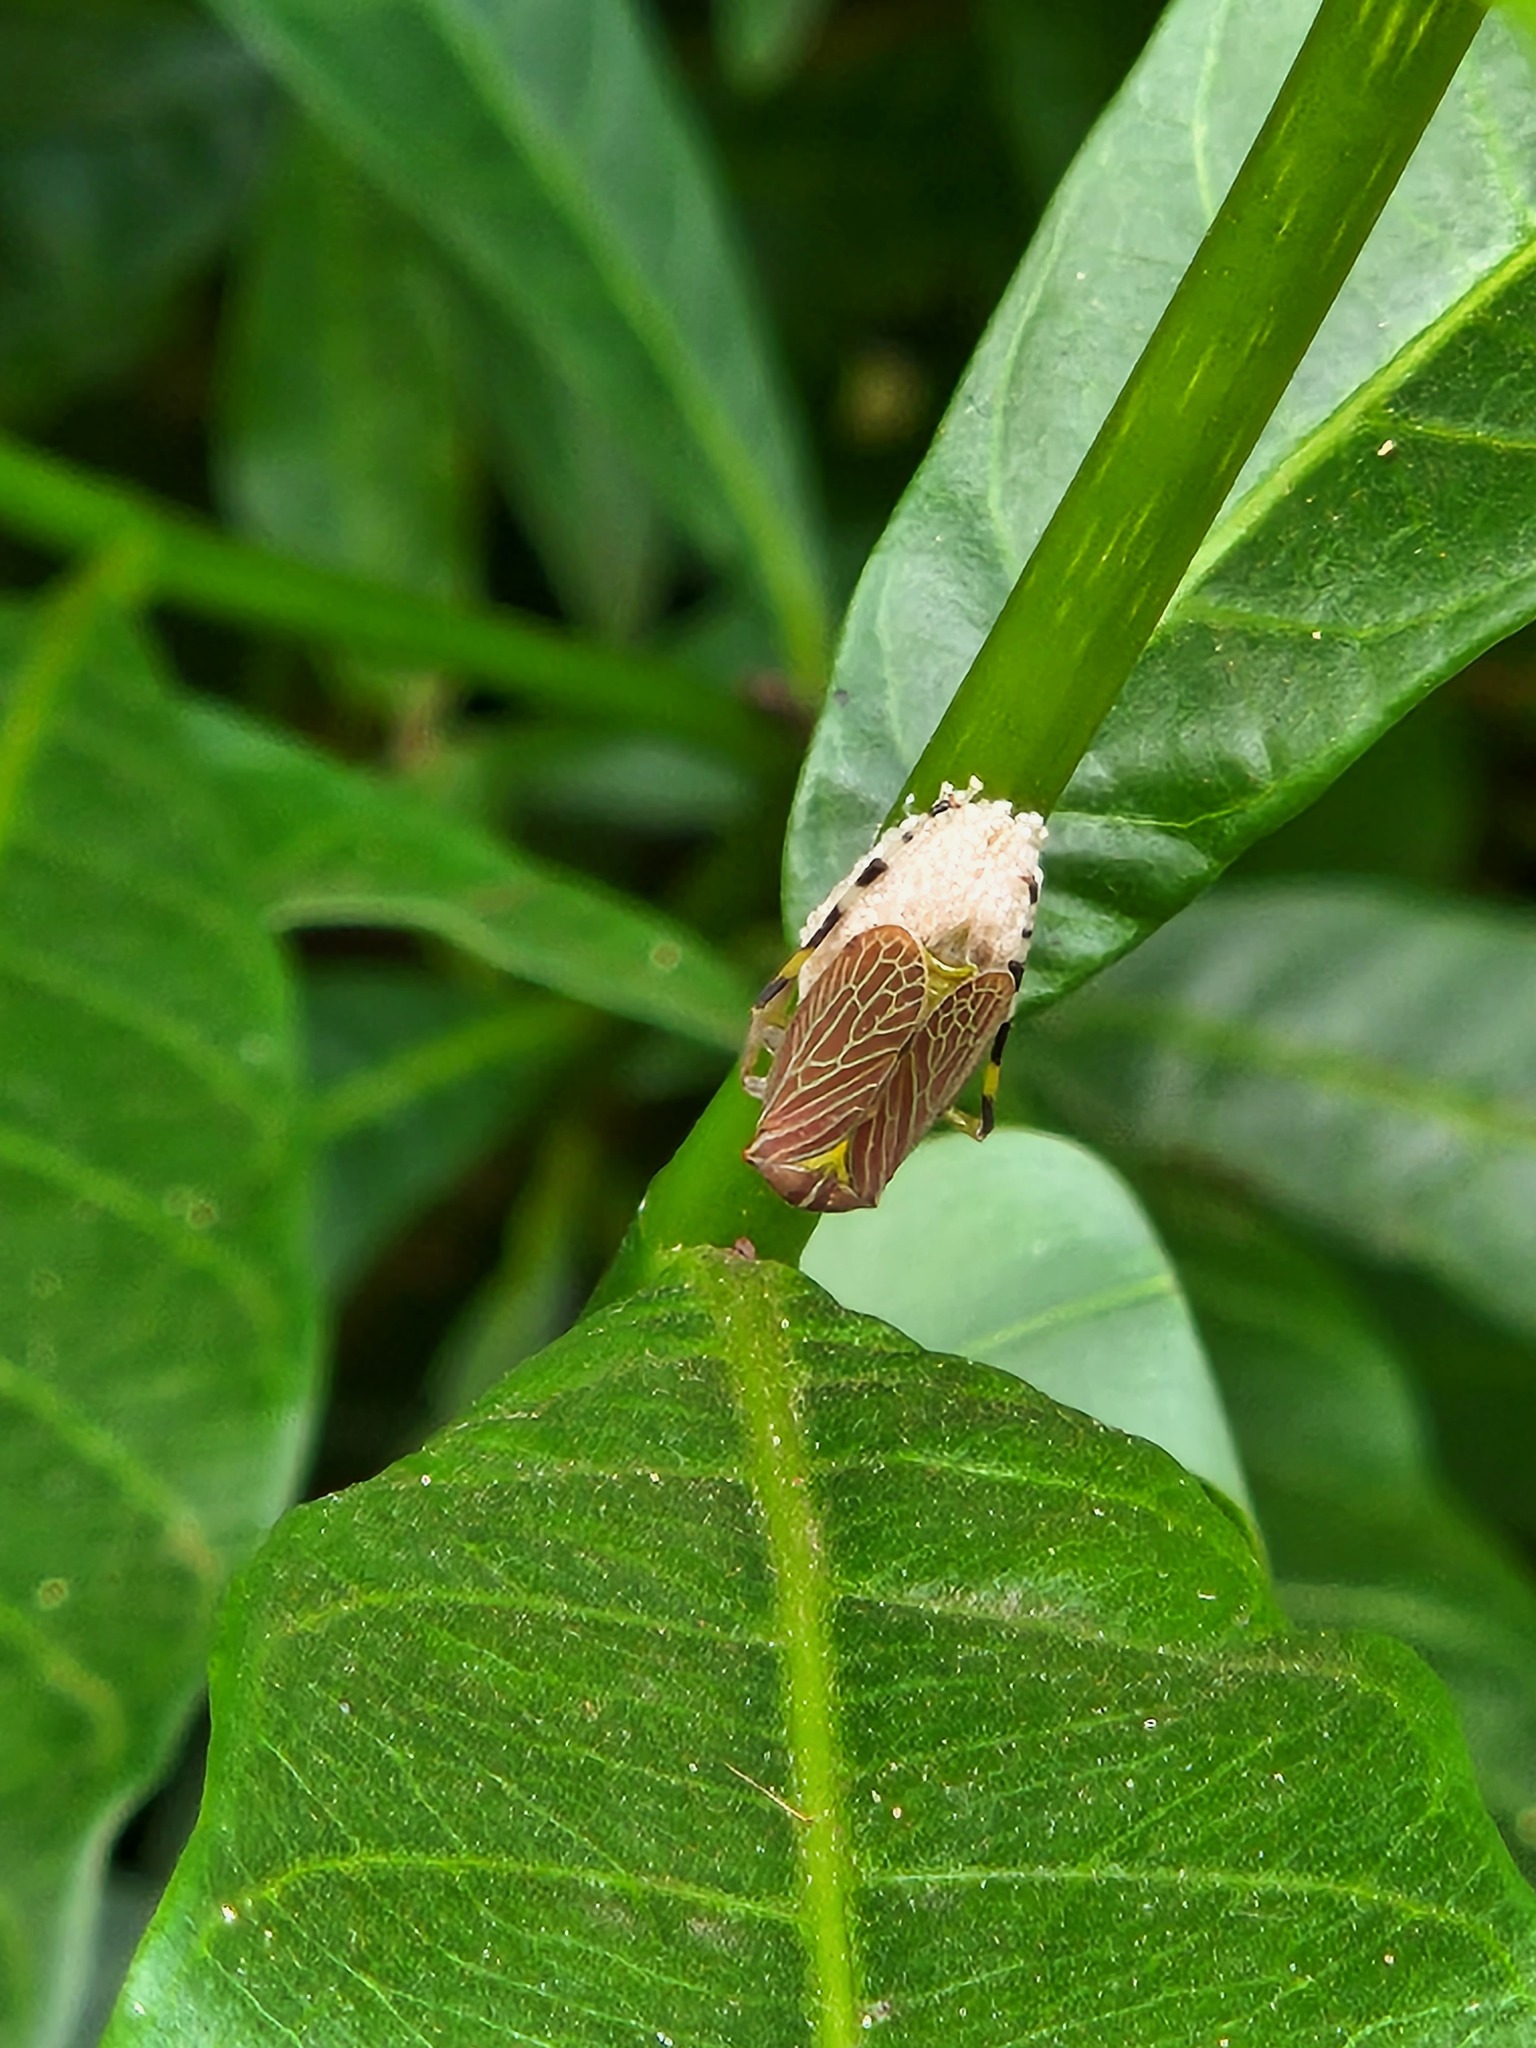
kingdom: Animalia
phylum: Arthropoda
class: Insecta
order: Hemiptera
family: Aetalionidae
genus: Aetalion
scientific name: Aetalion reticulatum
